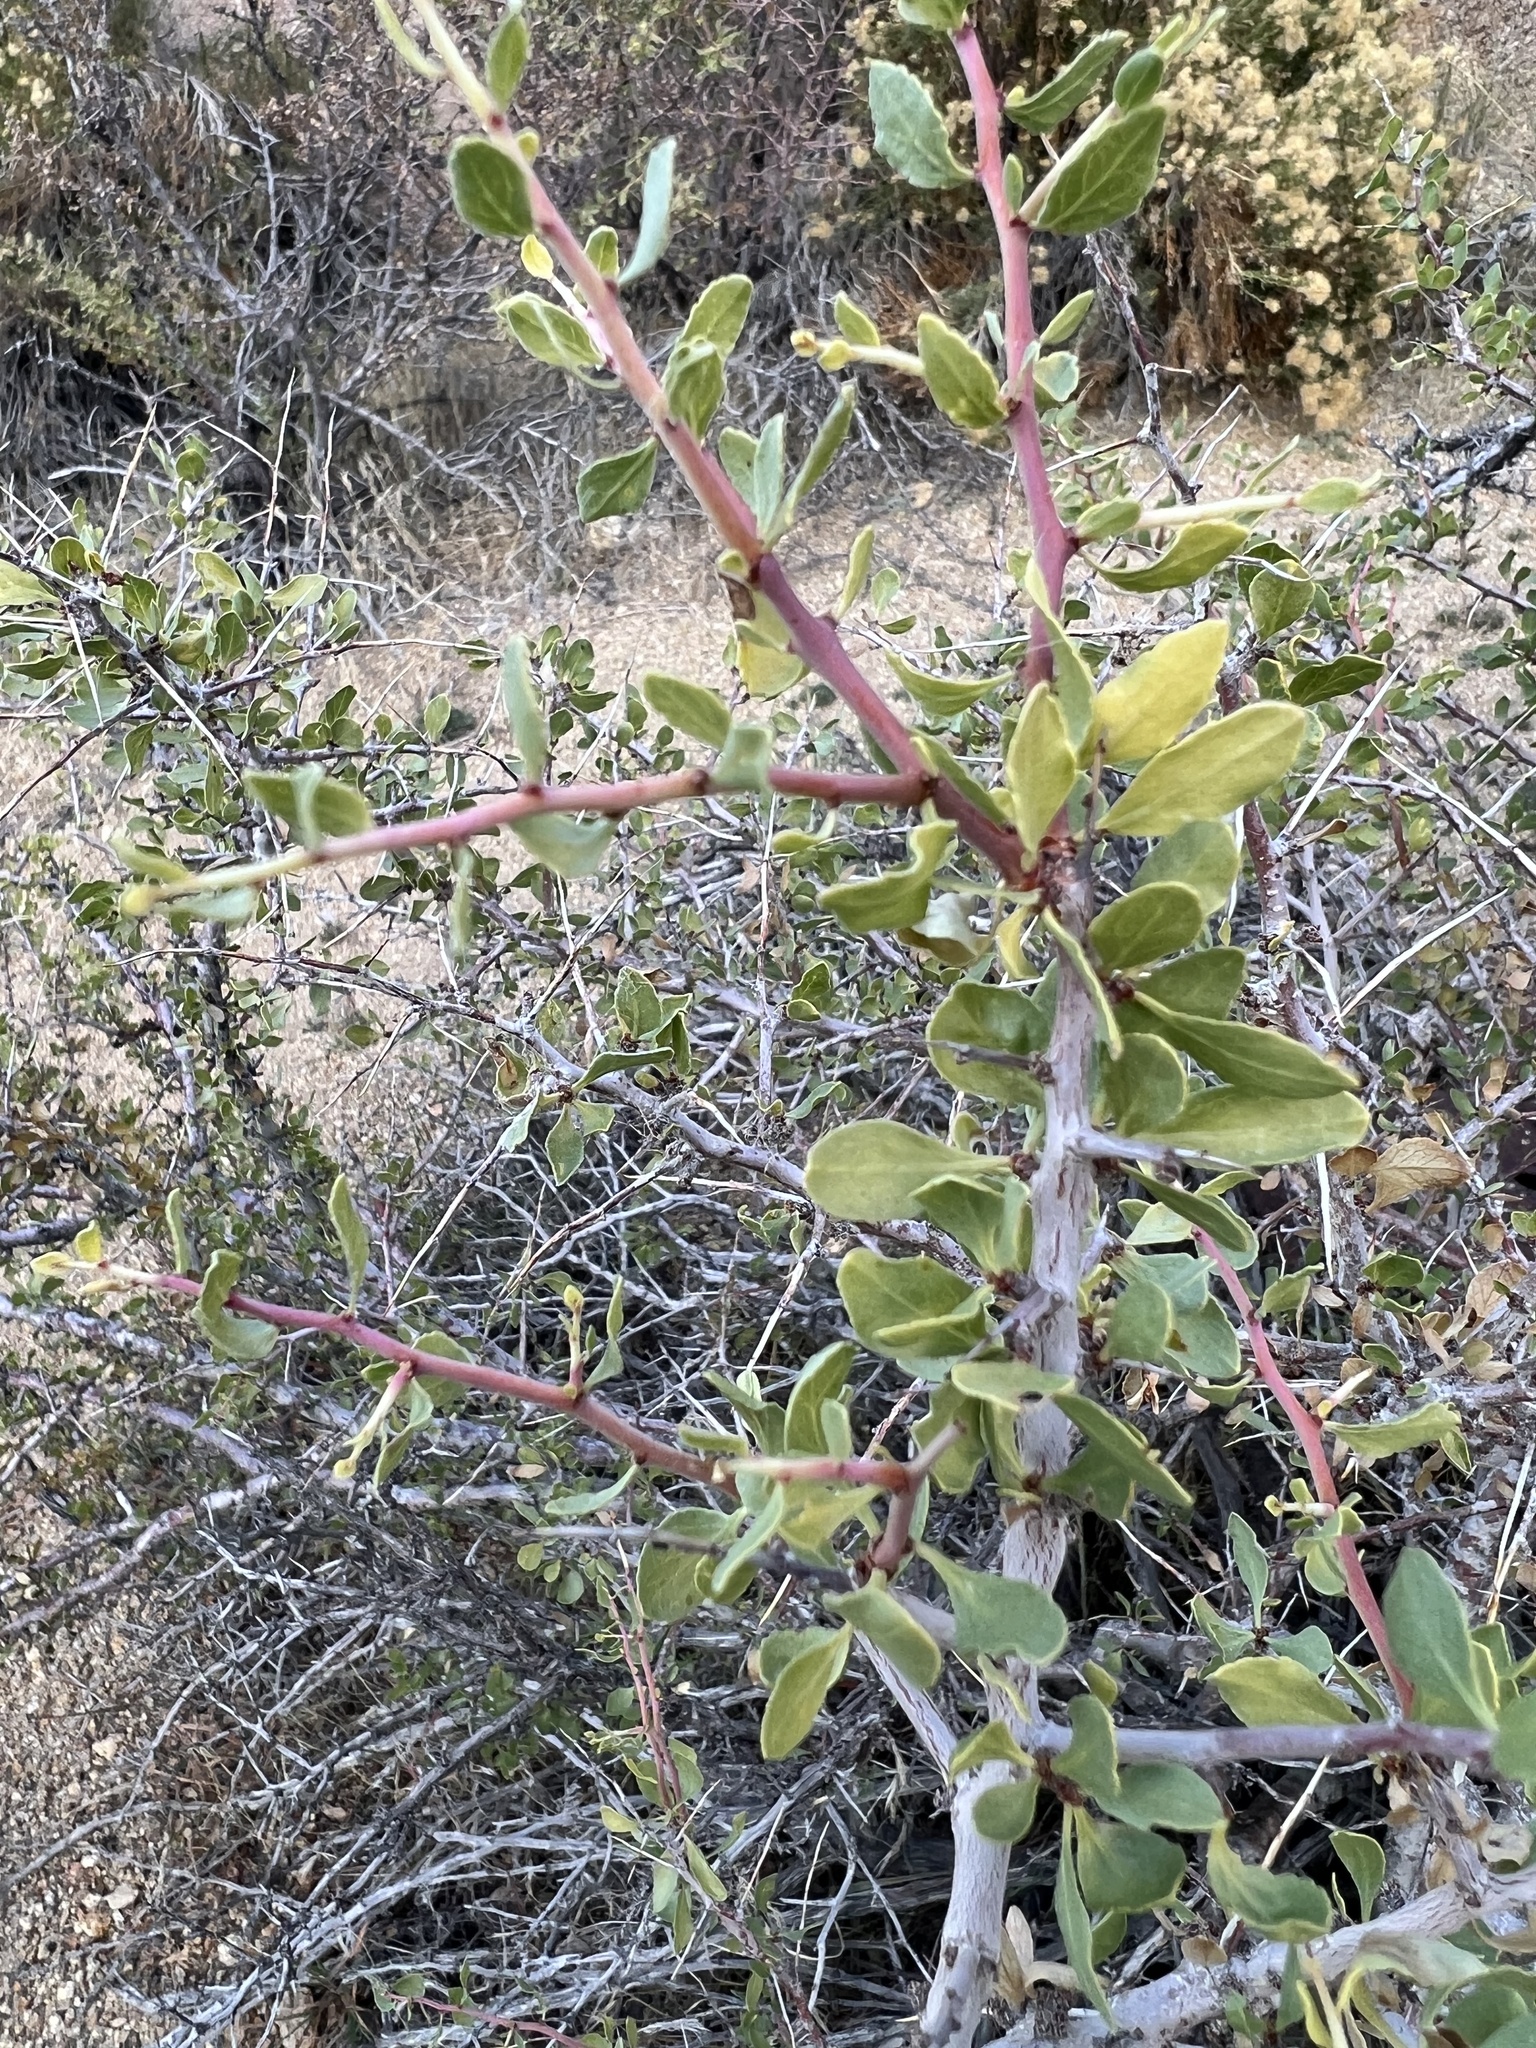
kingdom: Plantae
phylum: Tracheophyta
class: Magnoliopsida
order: Rosales
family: Rosaceae
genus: Prunus
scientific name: Prunus andersonii
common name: Desert peach
